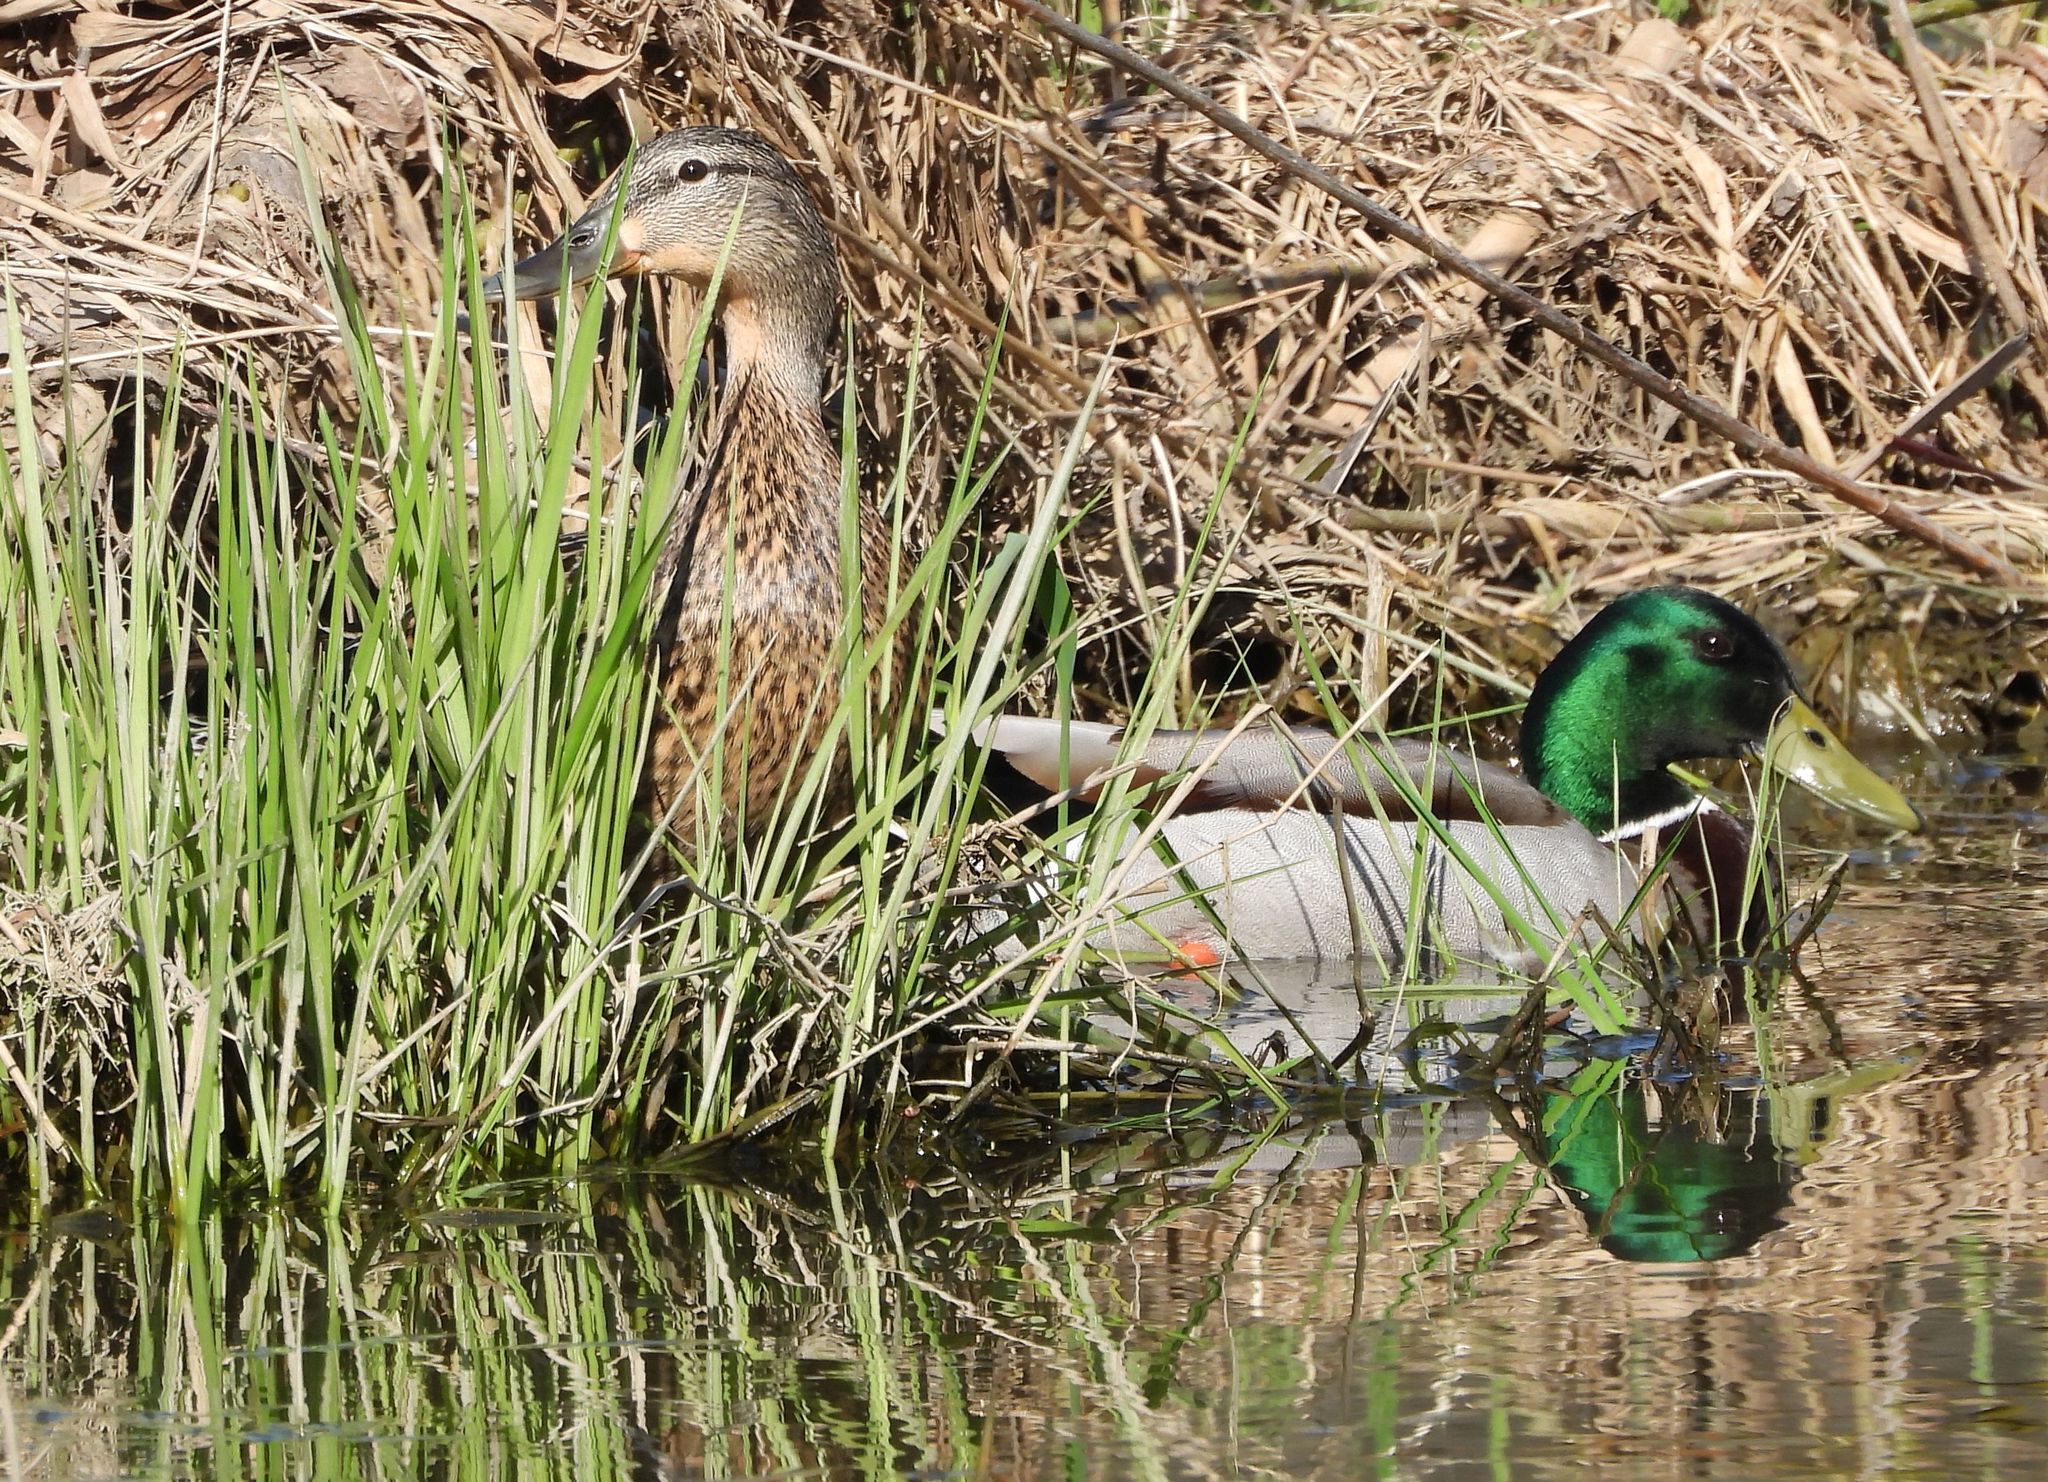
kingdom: Animalia
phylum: Chordata
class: Aves
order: Anseriformes
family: Anatidae
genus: Anas
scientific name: Anas platyrhynchos
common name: Mallard
